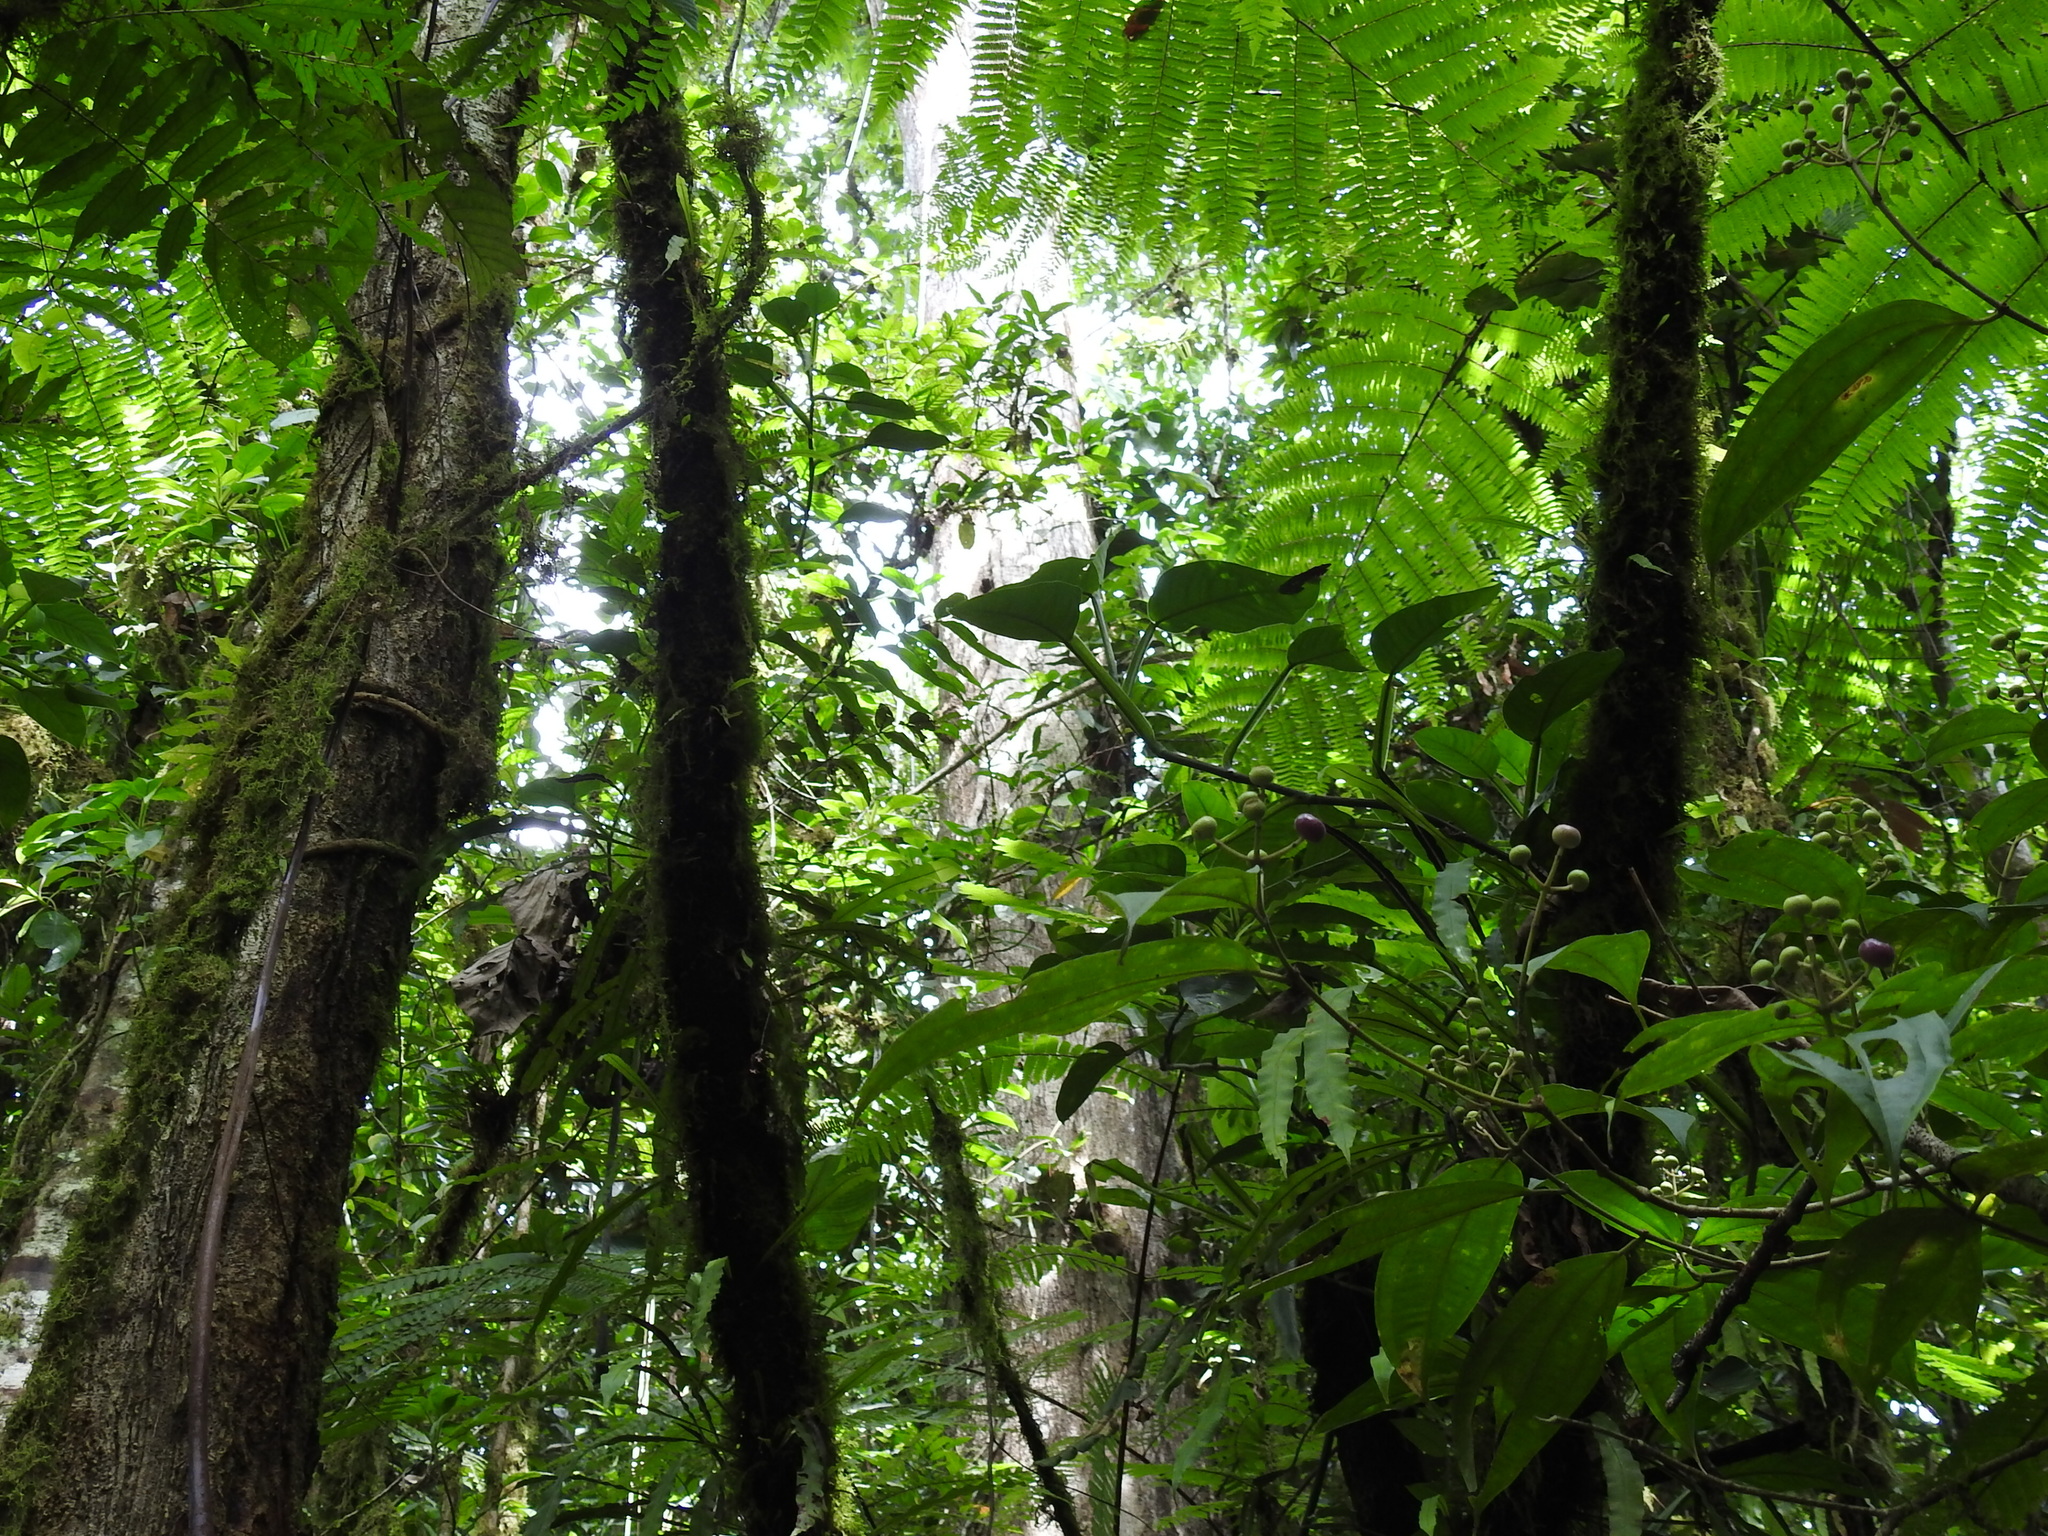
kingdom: Plantae
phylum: Tracheophyta
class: Magnoliopsida
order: Fagales
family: Fagaceae
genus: Quercus
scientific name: Quercus costaricensis
